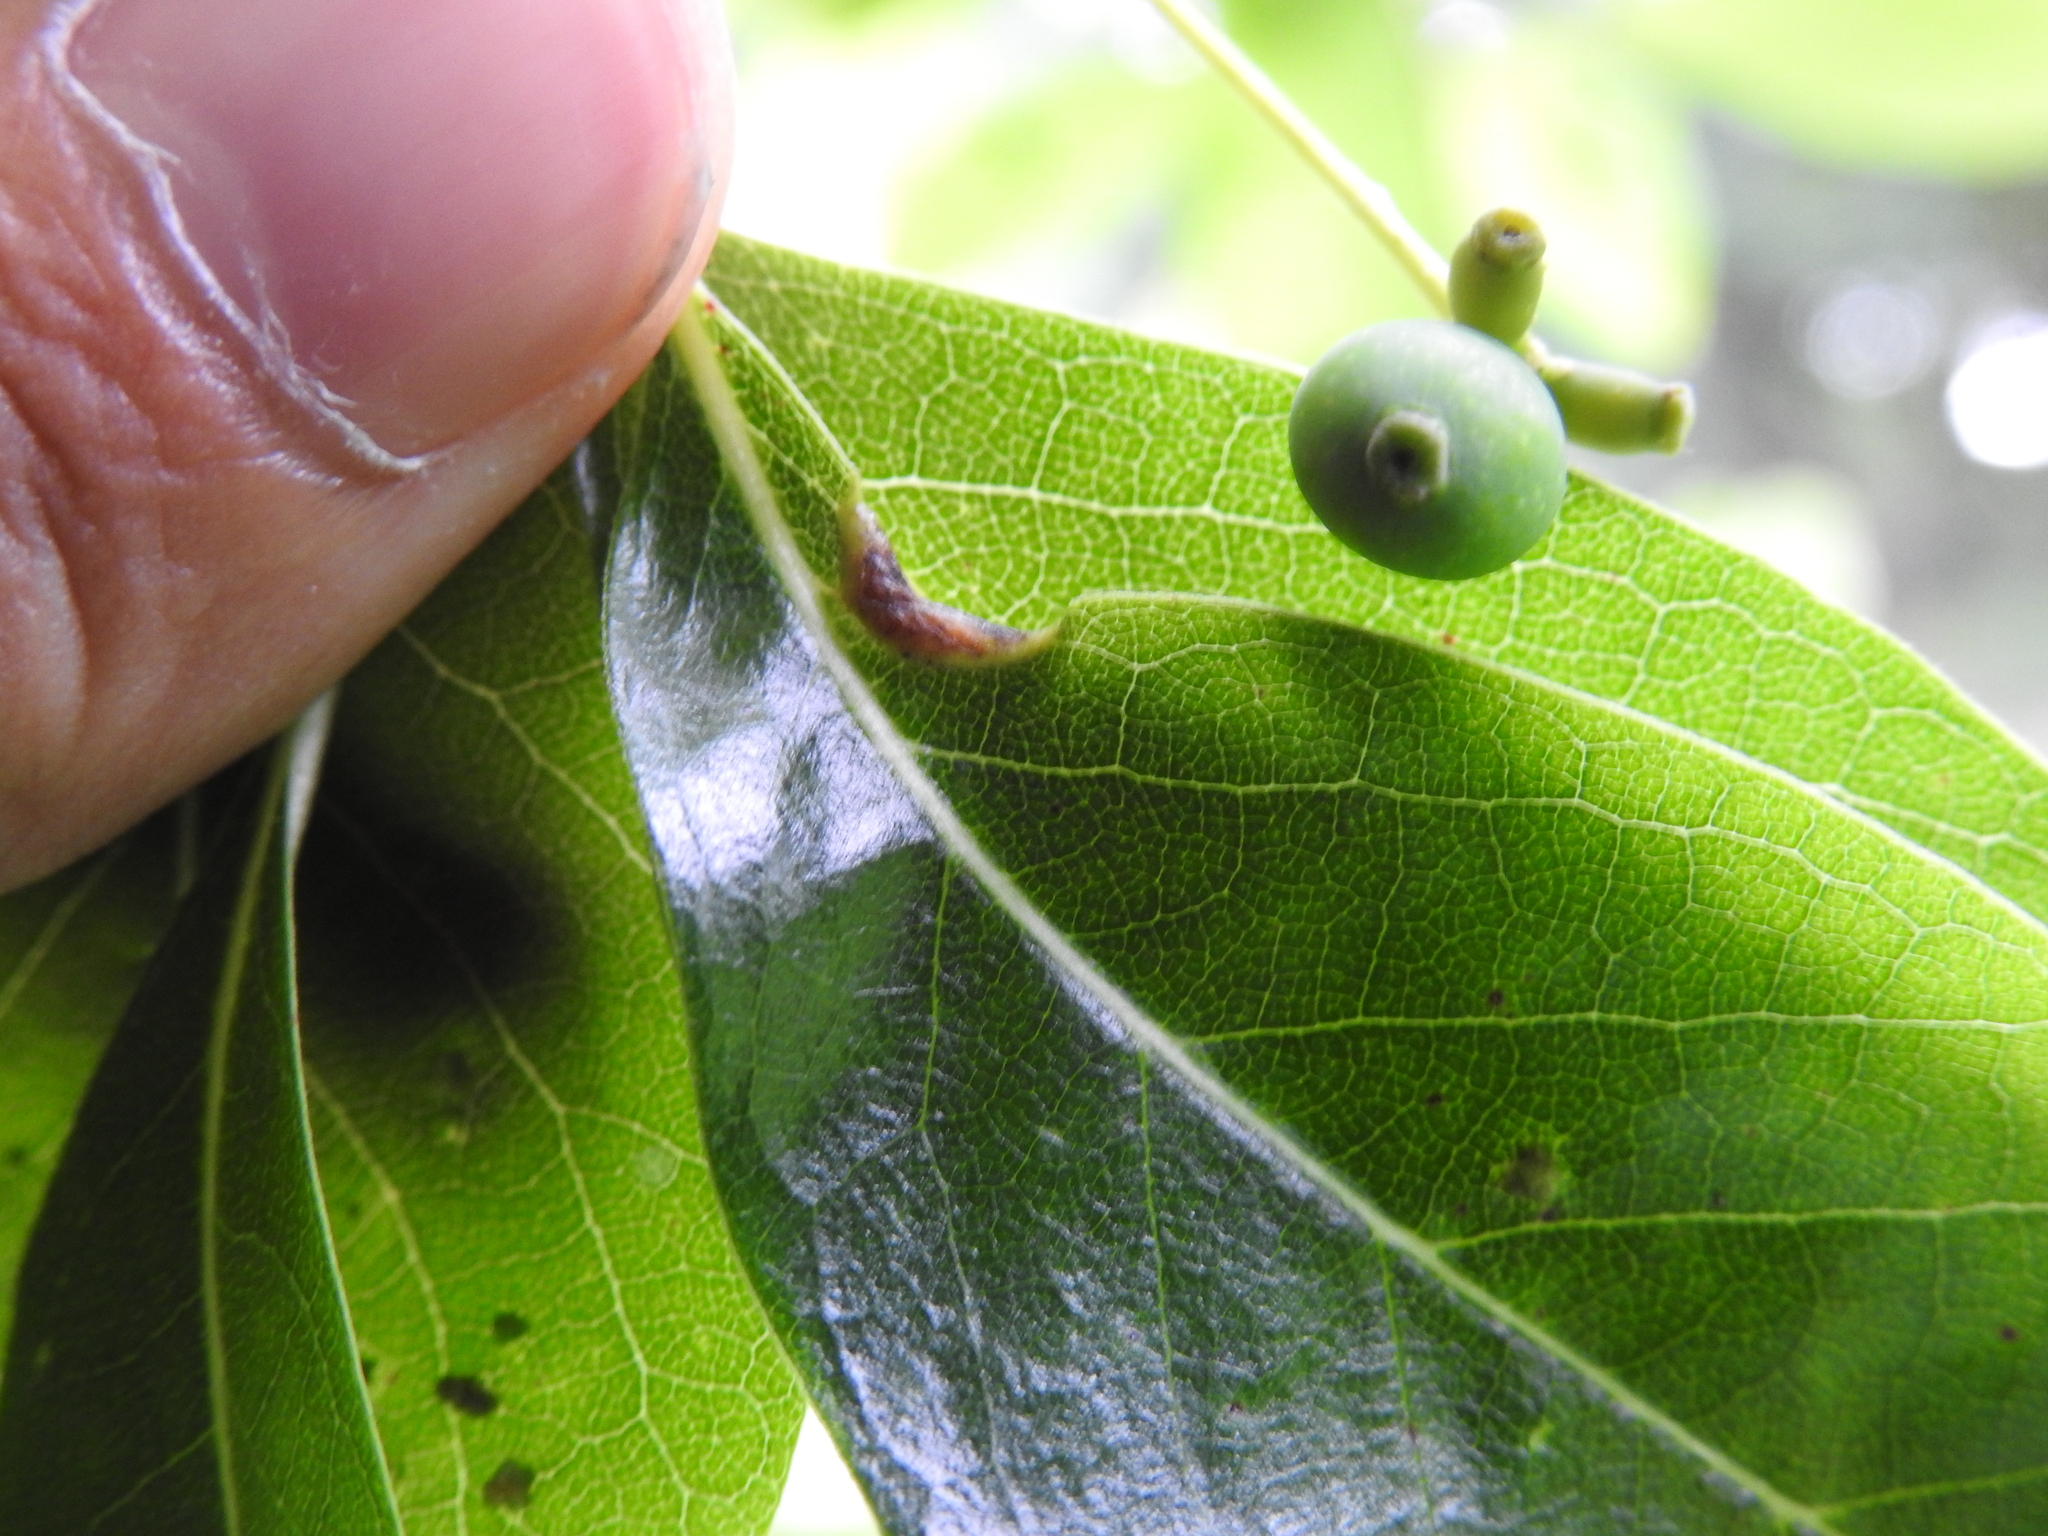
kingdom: Animalia
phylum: Arthropoda
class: Insecta
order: Hemiptera
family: Phylloxeridae
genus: Phylloxerina
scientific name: Phylloxerina nyssae
